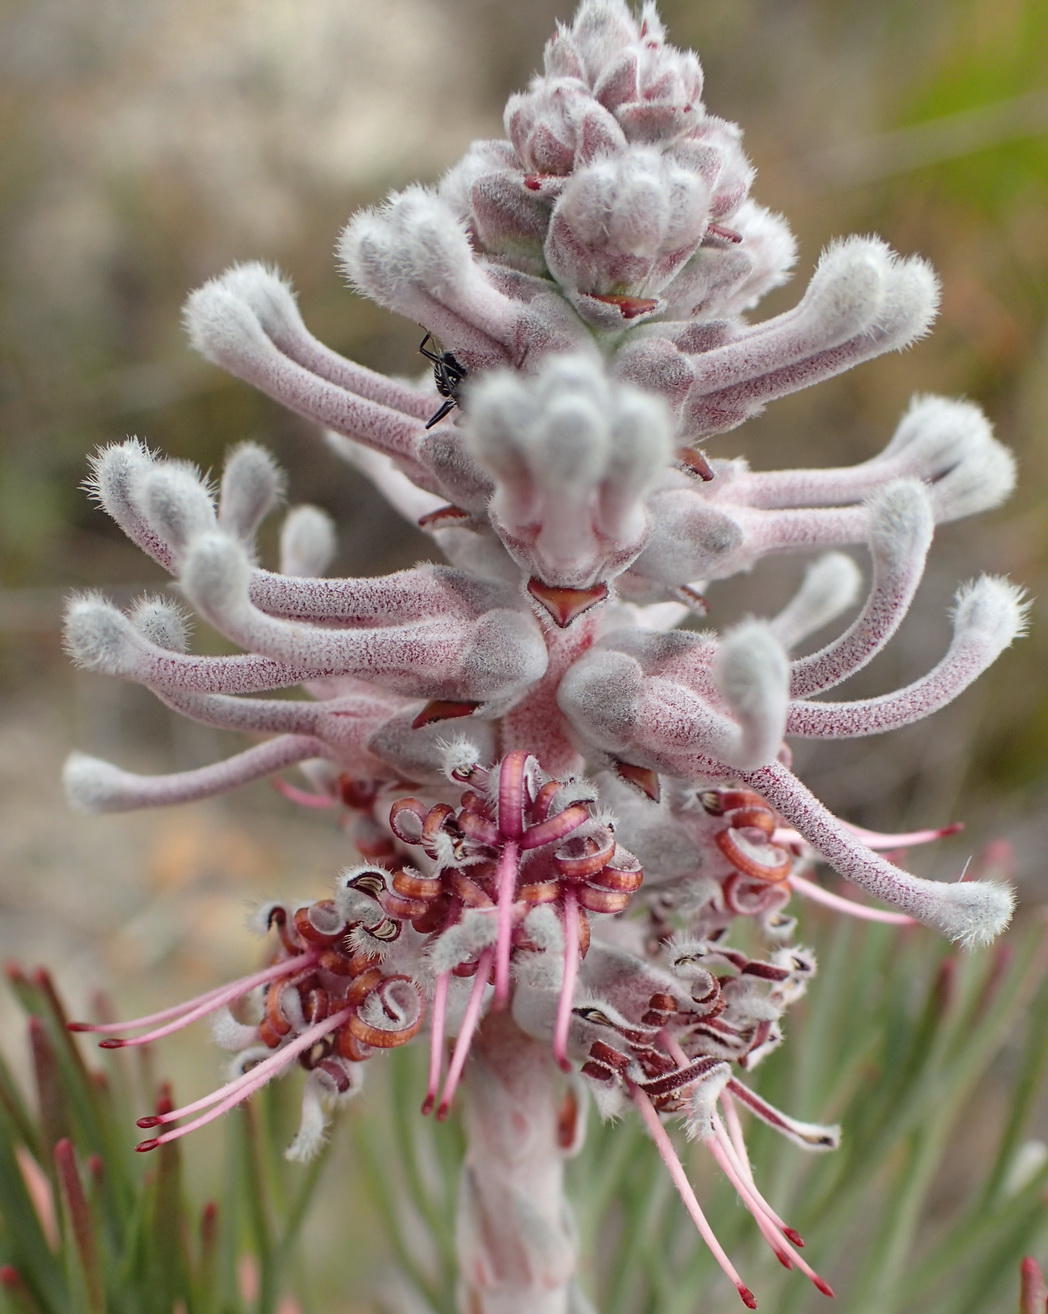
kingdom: Plantae
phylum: Tracheophyta
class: Magnoliopsida
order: Proteales
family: Proteaceae
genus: Paranomus
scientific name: Paranomus dispersus
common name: Long-head sceptre
